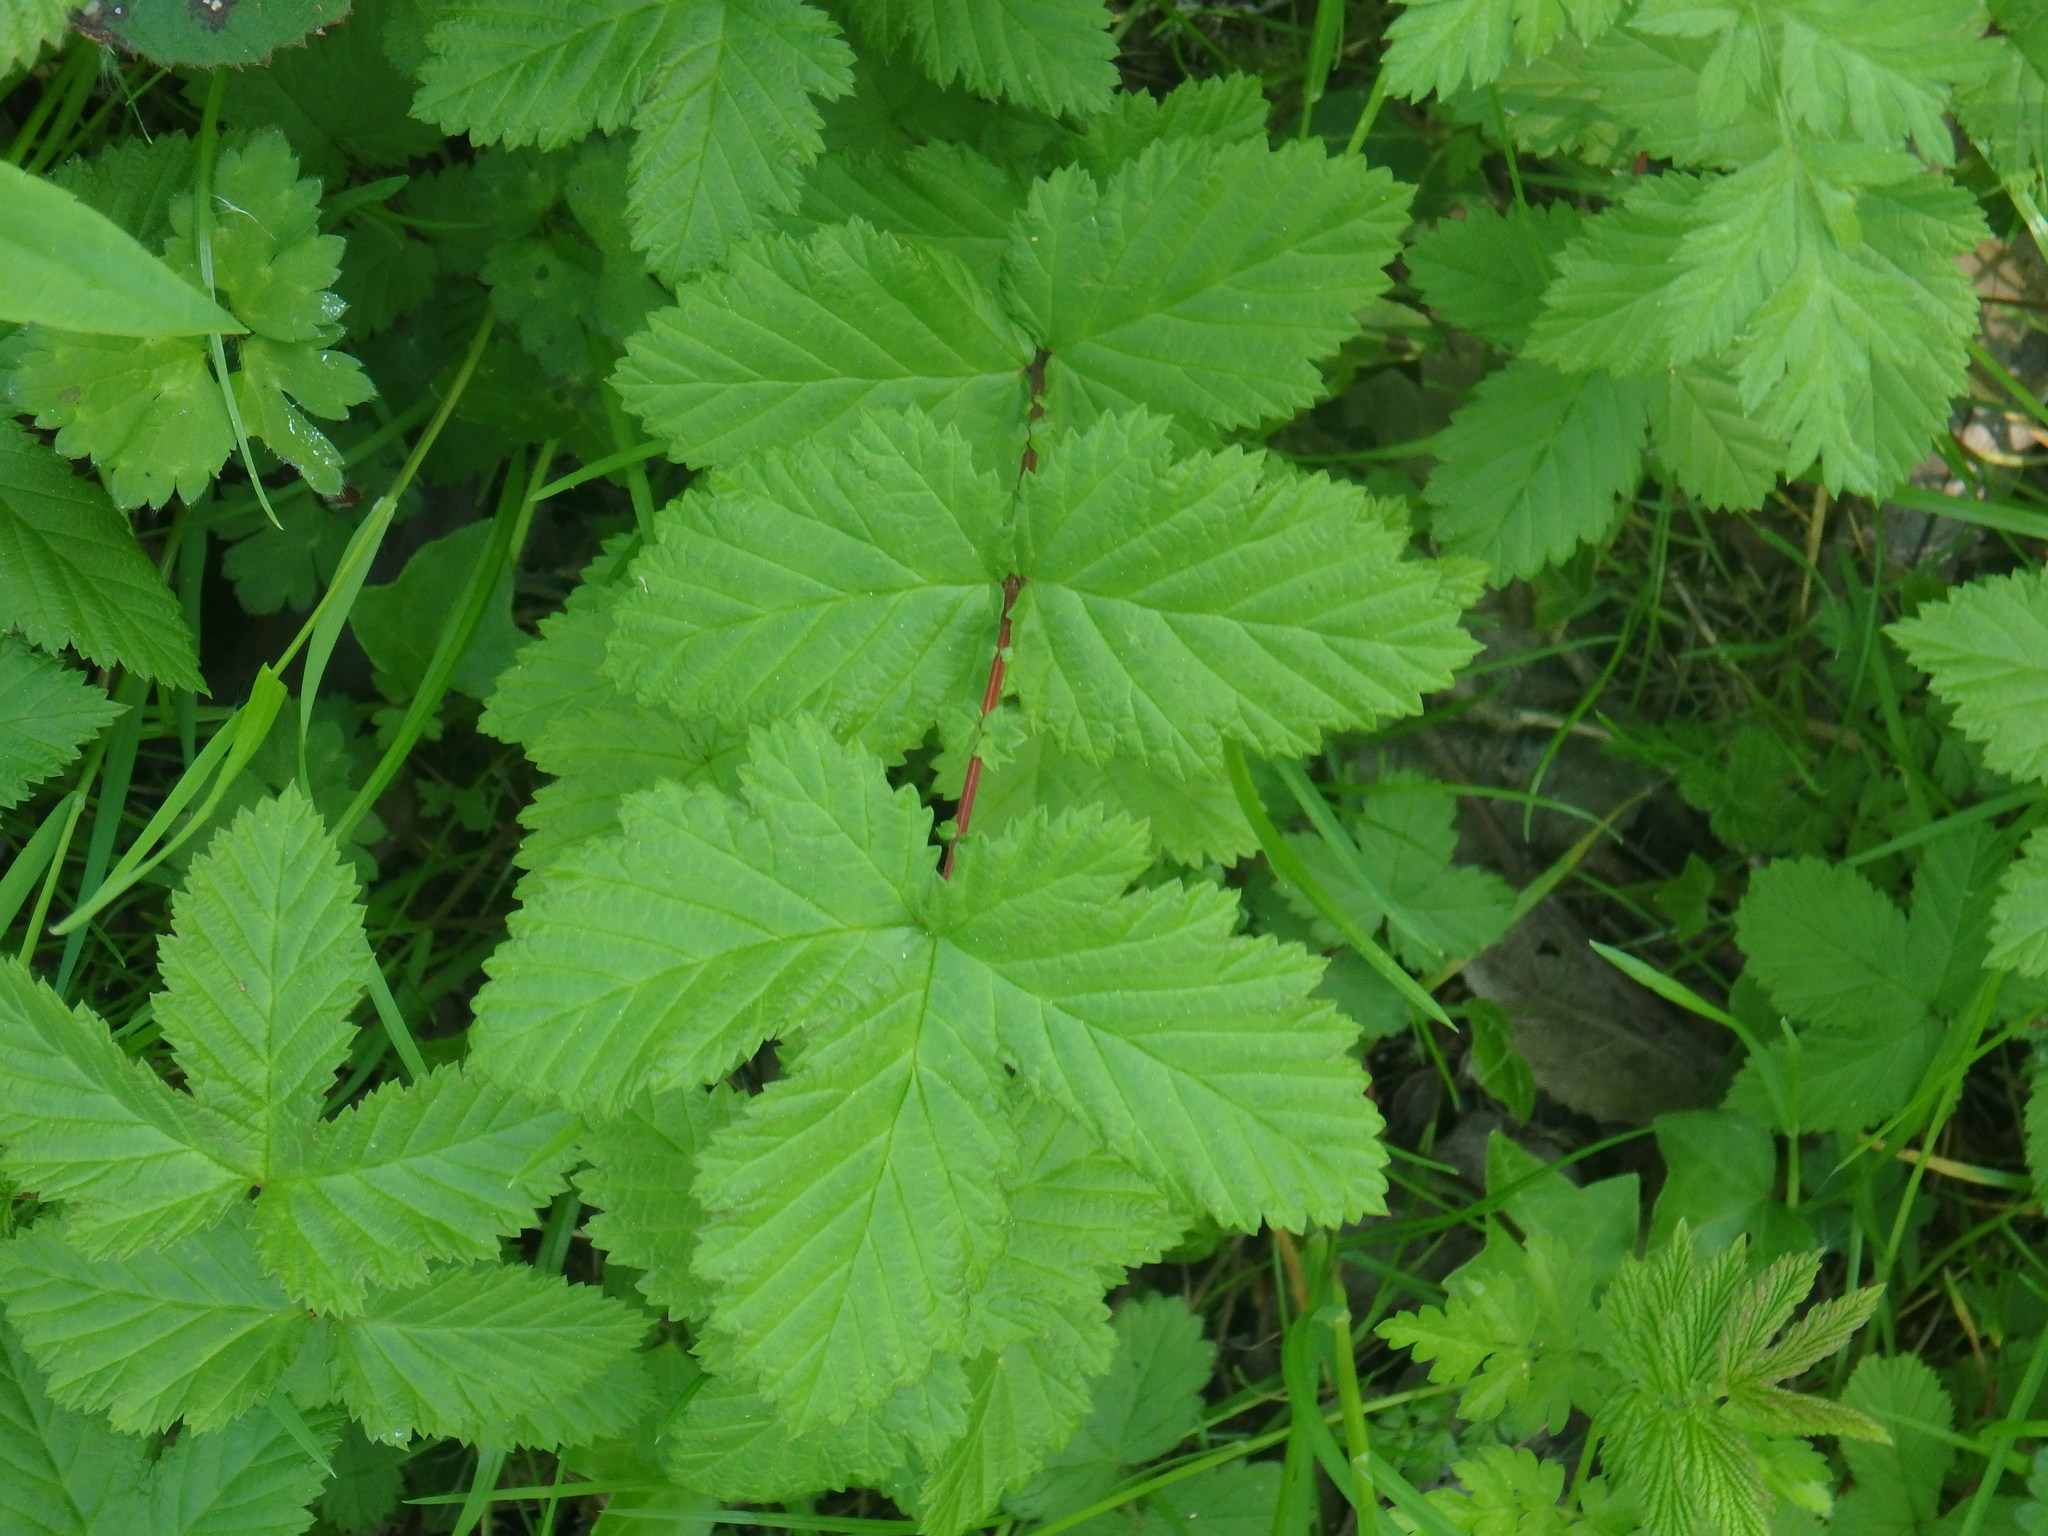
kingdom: Plantae
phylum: Tracheophyta
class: Magnoliopsida
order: Rosales
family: Rosaceae
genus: Filipendula
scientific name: Filipendula ulmaria
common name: Meadowsweet
